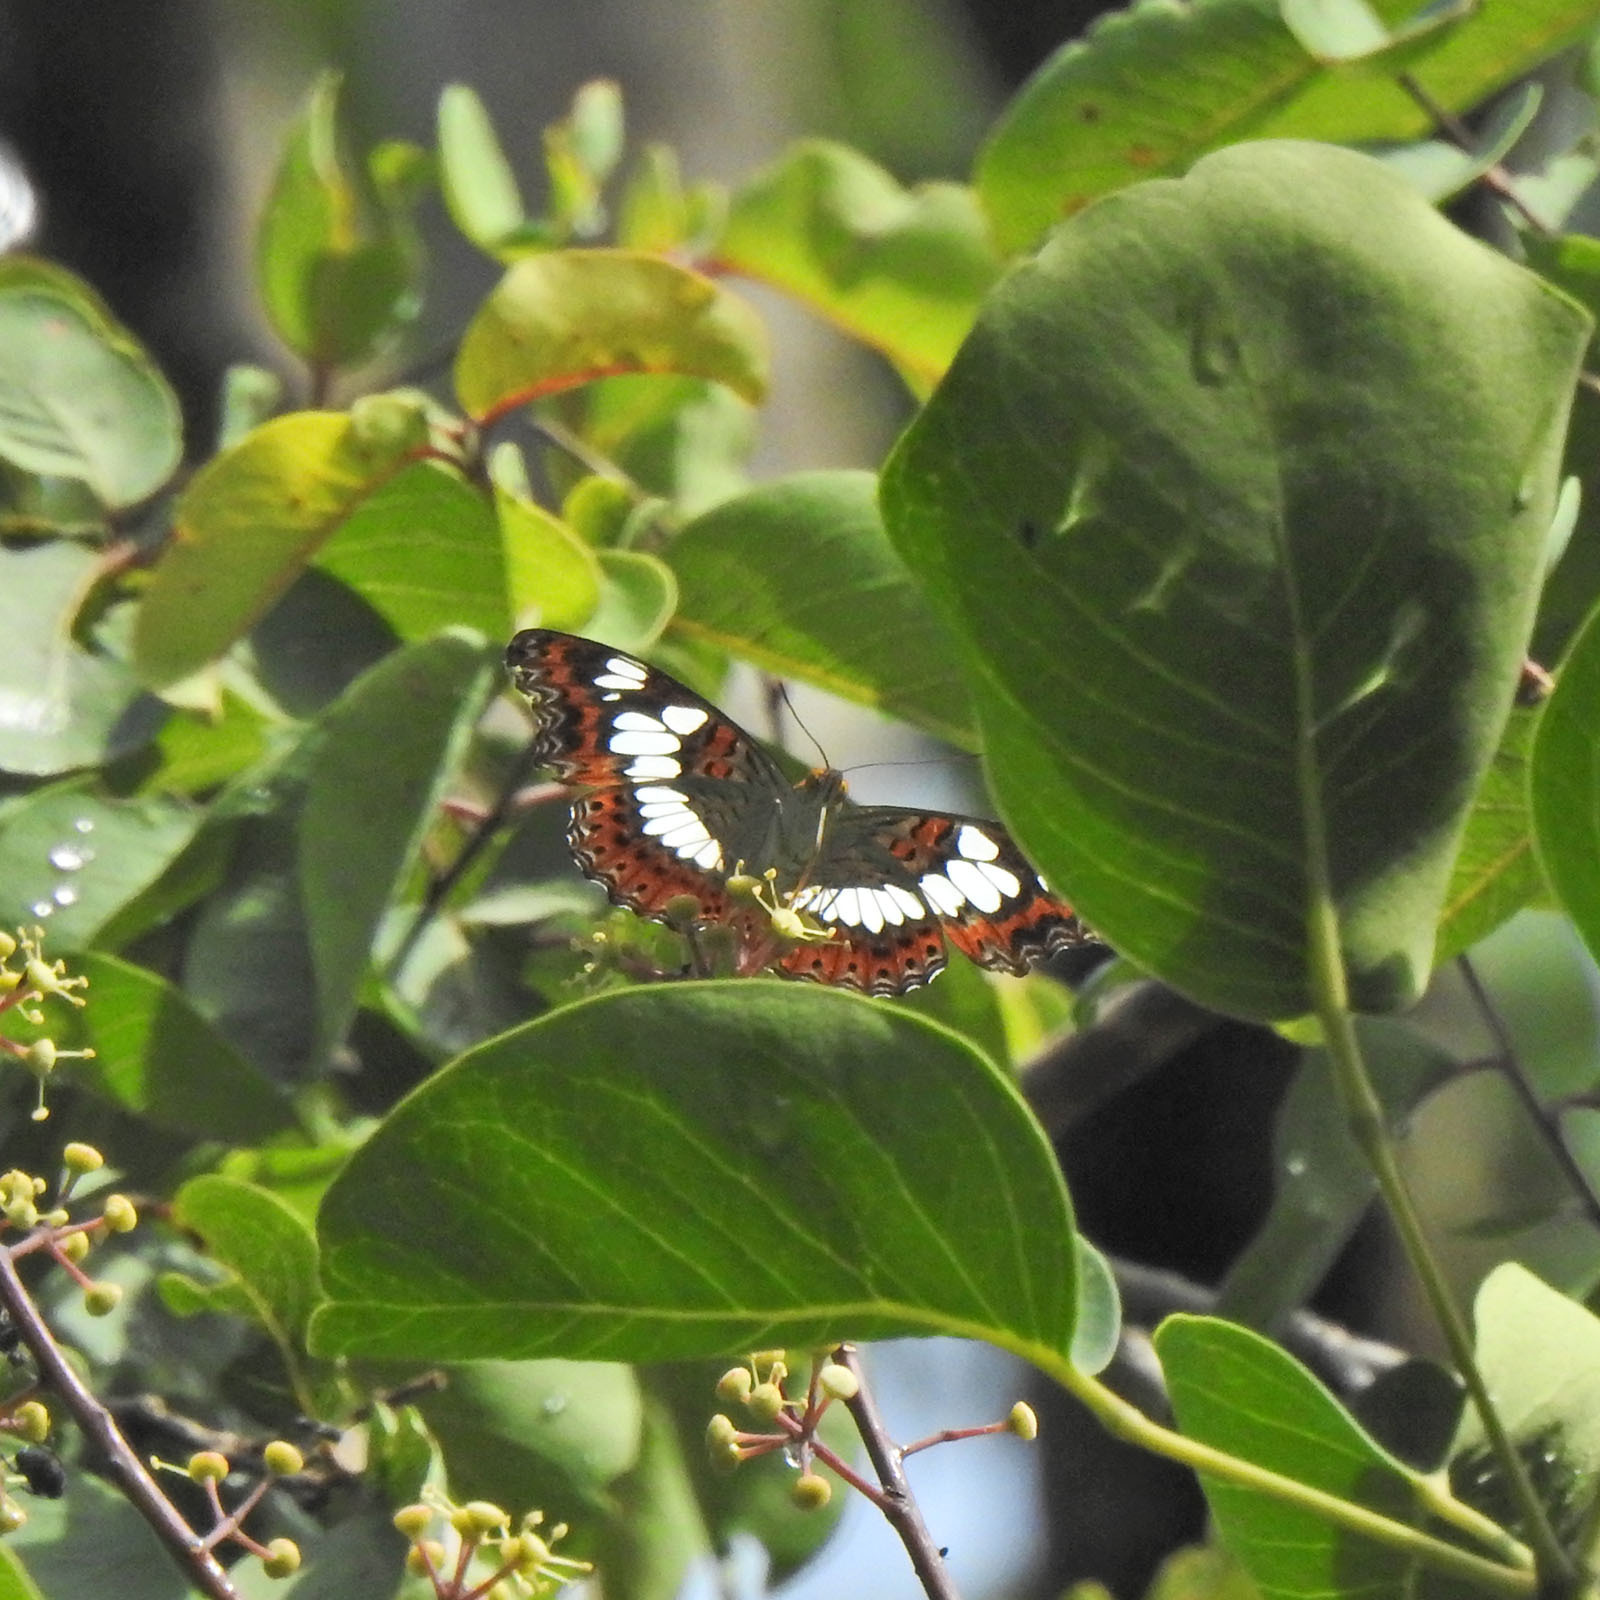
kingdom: Animalia
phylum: Arthropoda
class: Insecta
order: Lepidoptera
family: Nymphalidae
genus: Limenitis
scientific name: Limenitis Moduza procris
